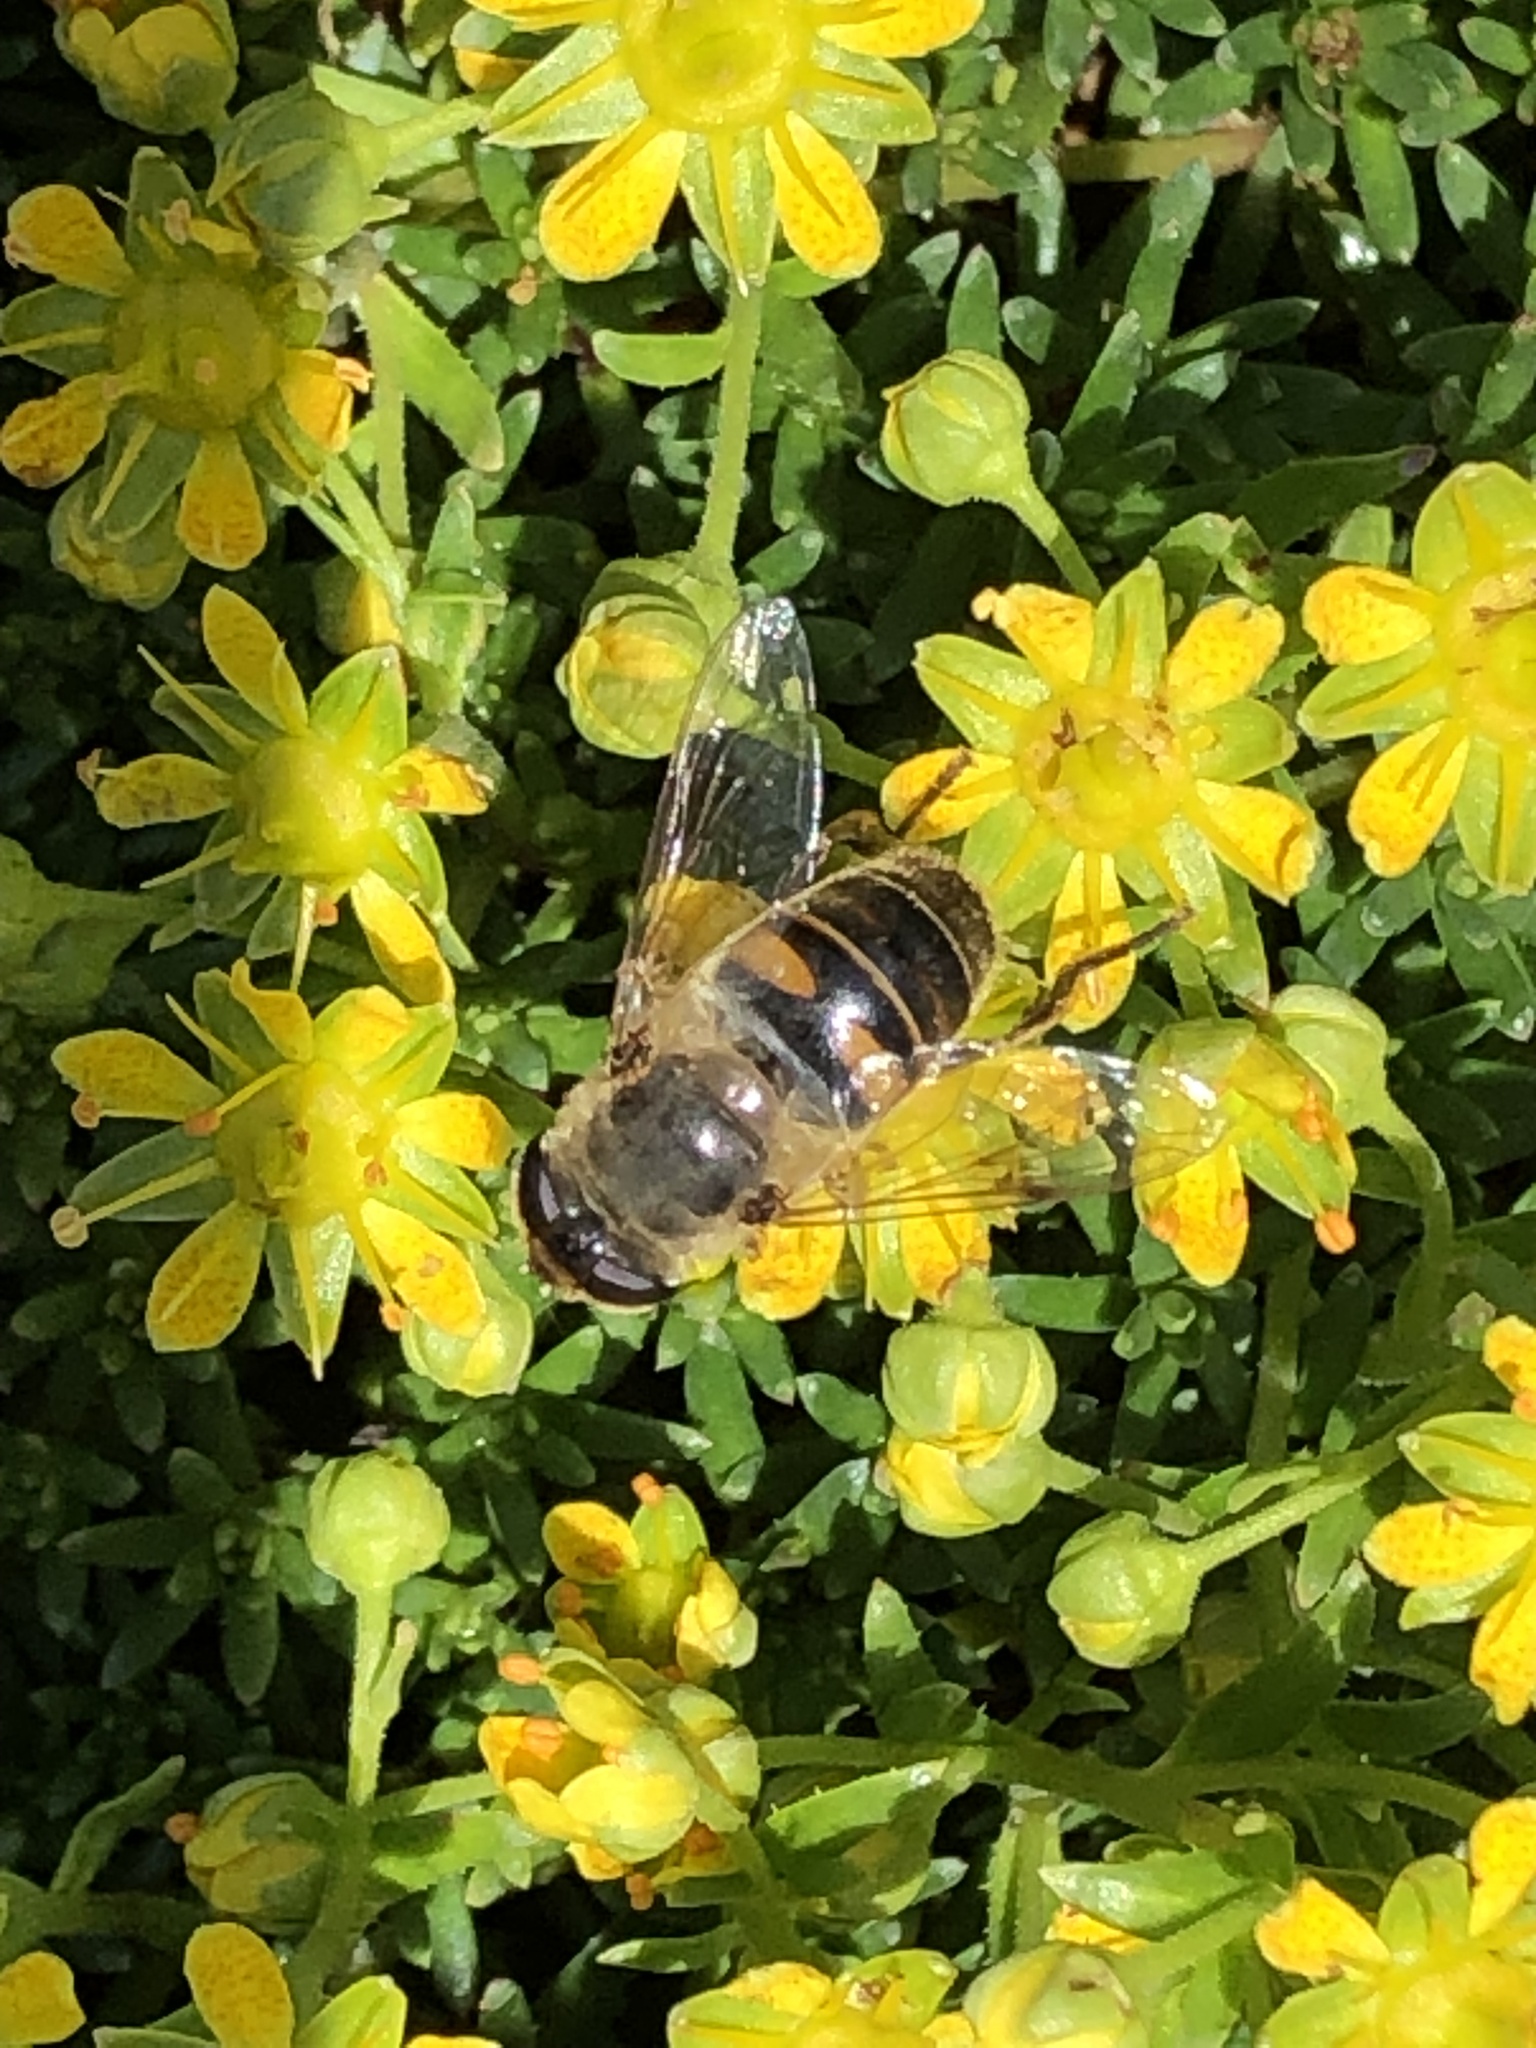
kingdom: Animalia
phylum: Arthropoda
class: Insecta
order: Diptera
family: Syrphidae
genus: Eristalis
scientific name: Eristalis tenax
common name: Drone fly
